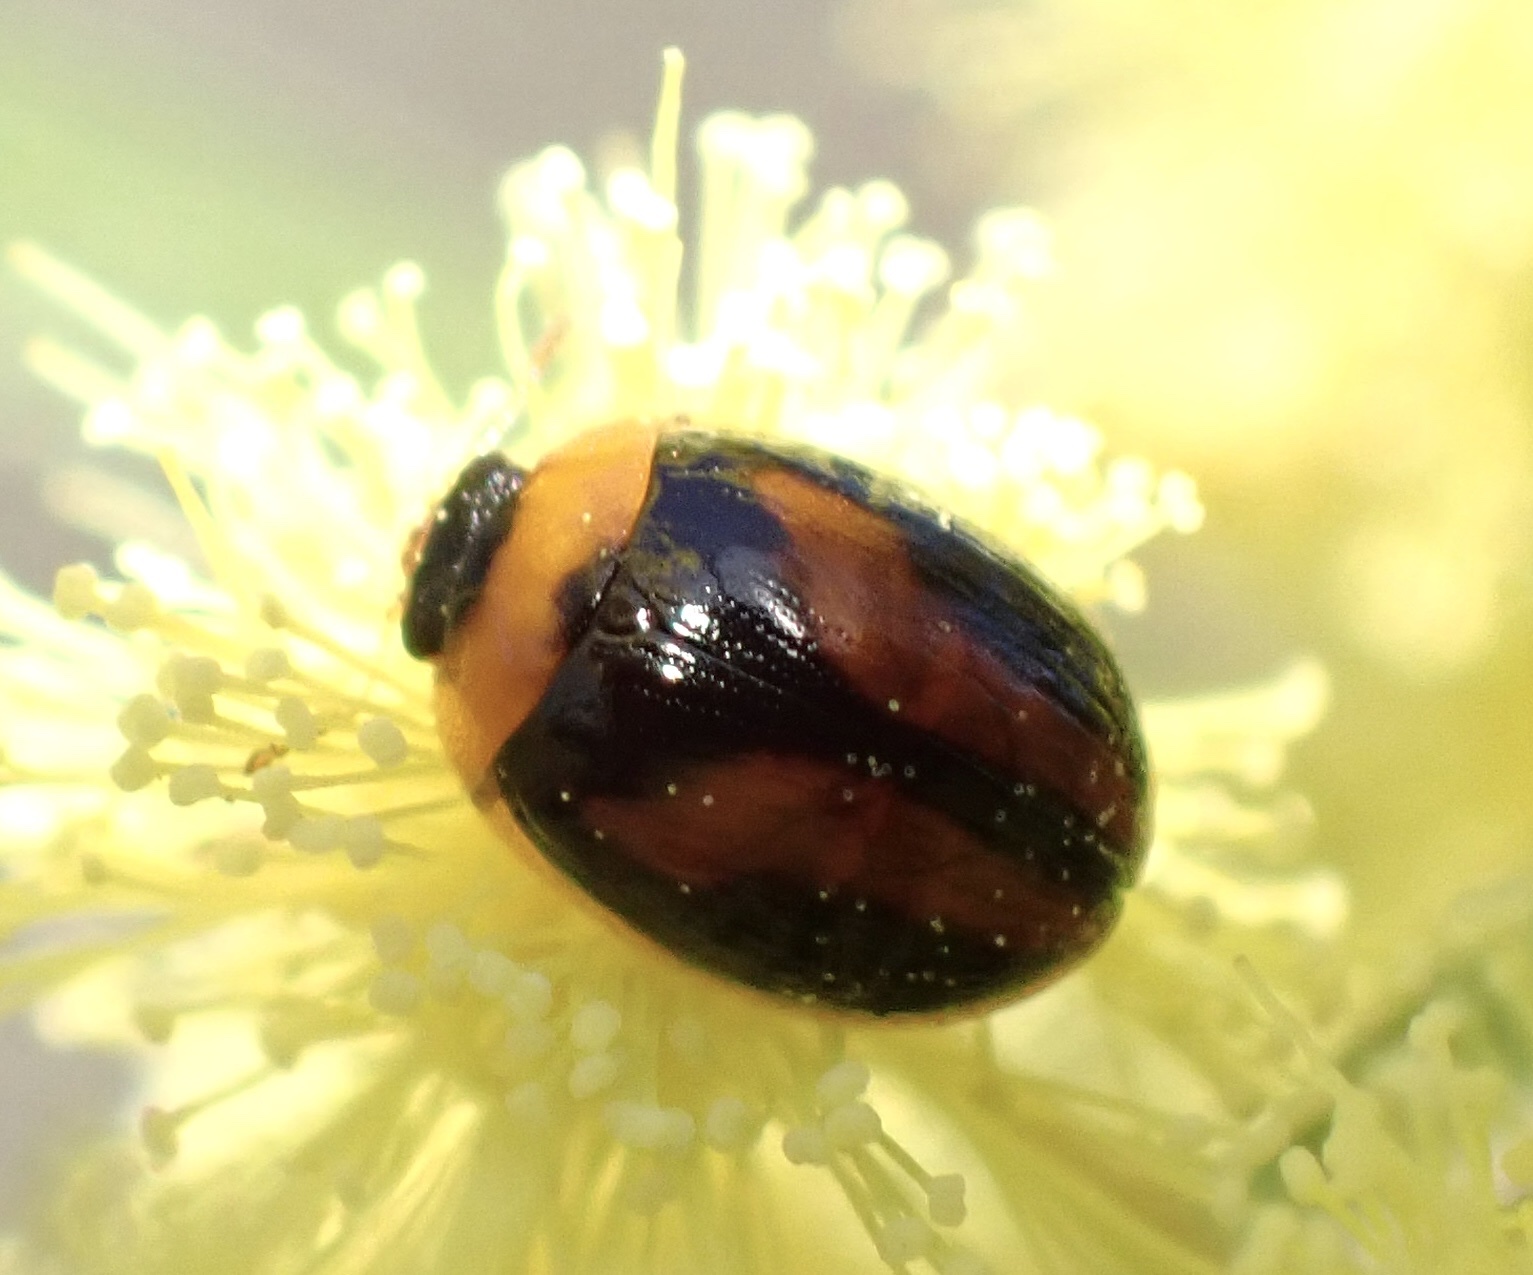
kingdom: Animalia
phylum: Arthropoda
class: Insecta
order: Coleoptera
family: Chrysomelidae
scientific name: Chrysomelidae
